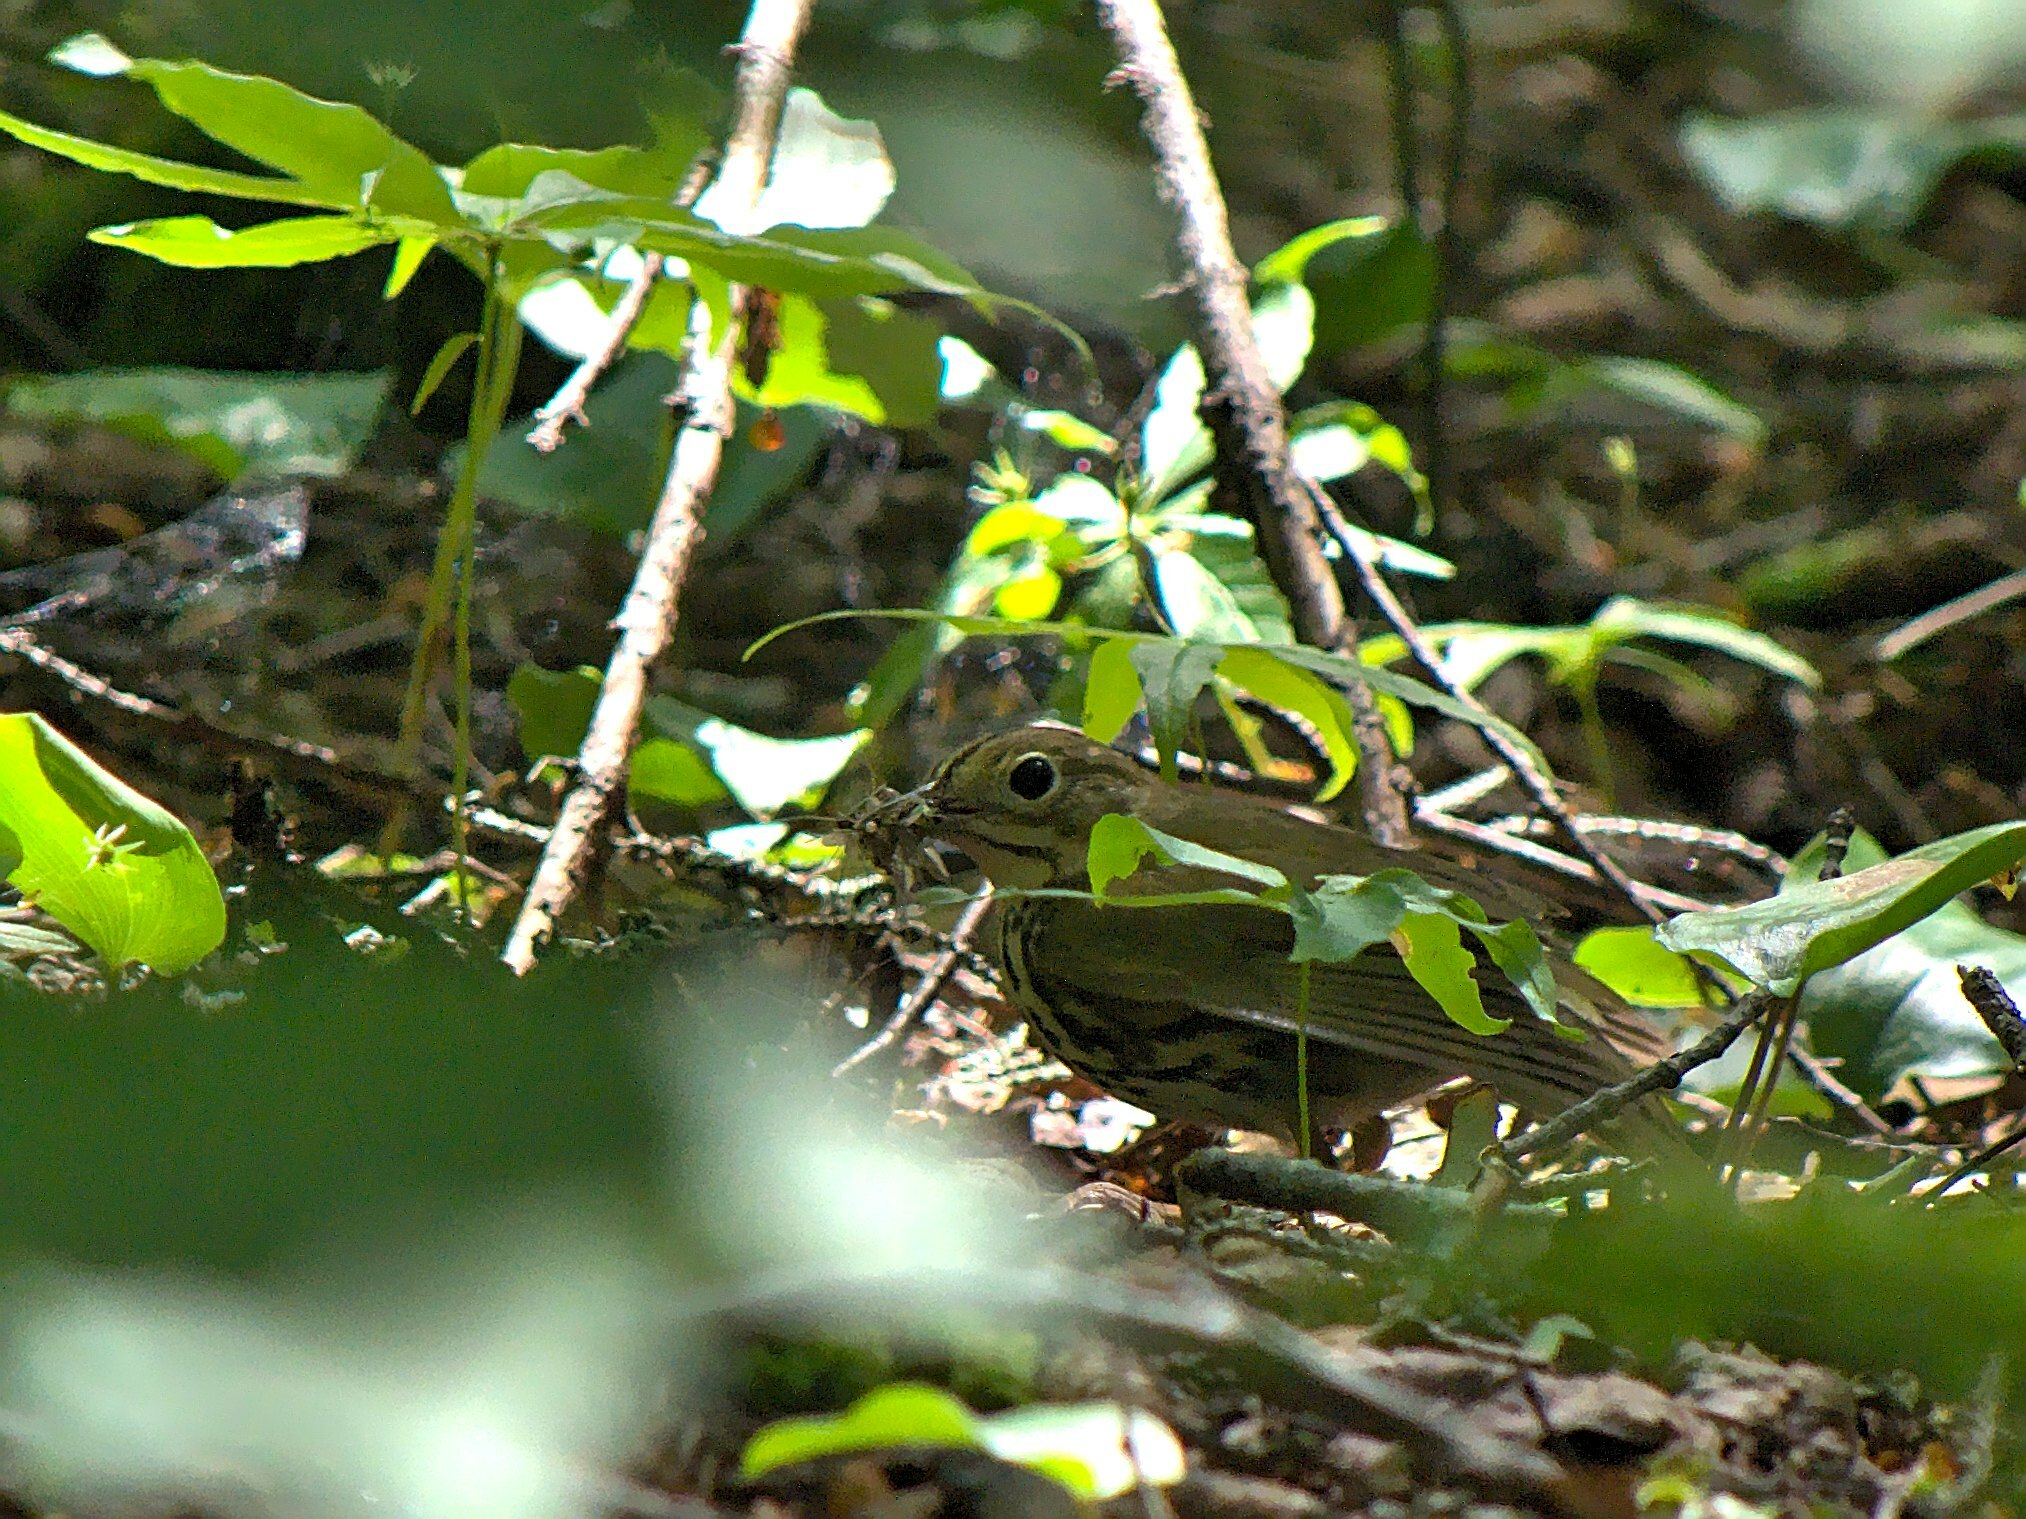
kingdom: Animalia
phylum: Chordata
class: Aves
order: Passeriformes
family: Parulidae
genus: Seiurus
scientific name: Seiurus aurocapilla
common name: Ovenbird
